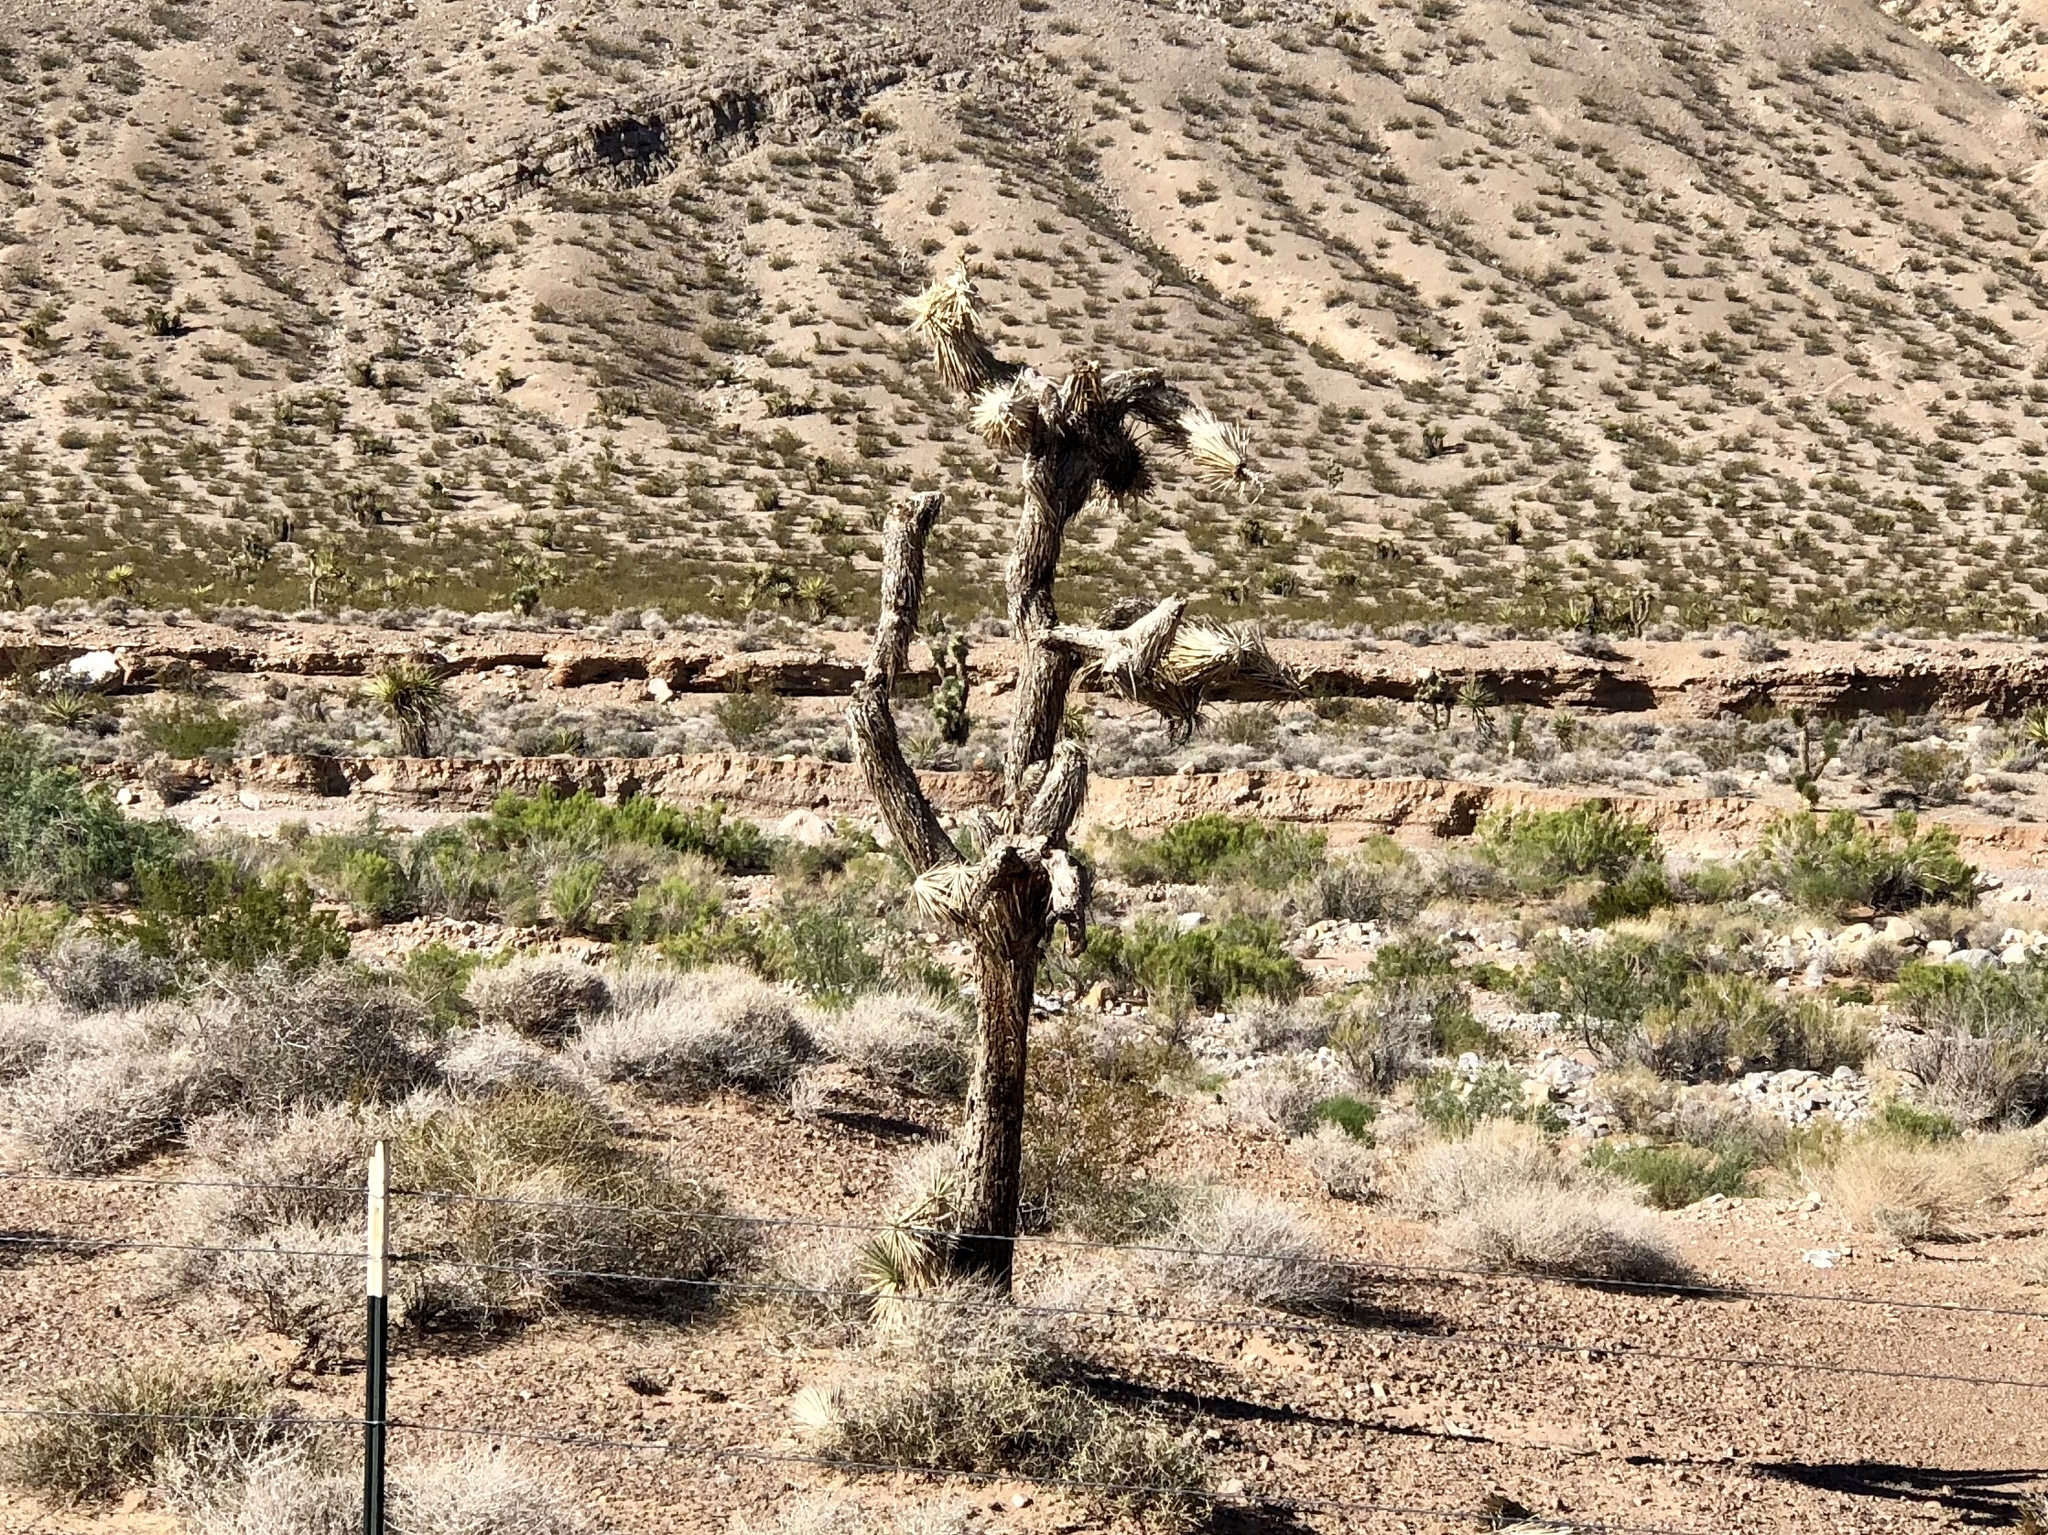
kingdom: Plantae
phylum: Tracheophyta
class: Liliopsida
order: Asparagales
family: Asparagaceae
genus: Yucca
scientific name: Yucca brevifolia
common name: Joshua tree
